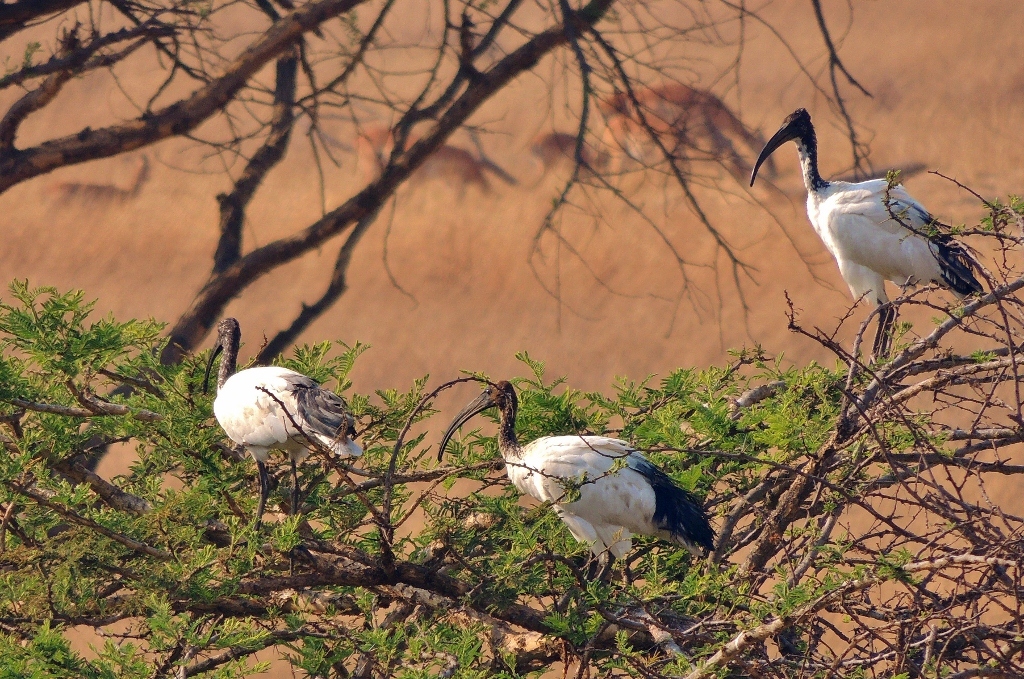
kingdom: Animalia
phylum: Chordata
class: Aves
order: Pelecaniformes
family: Threskiornithidae
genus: Threskiornis
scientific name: Threskiornis aethiopicus
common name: Sacred ibis
